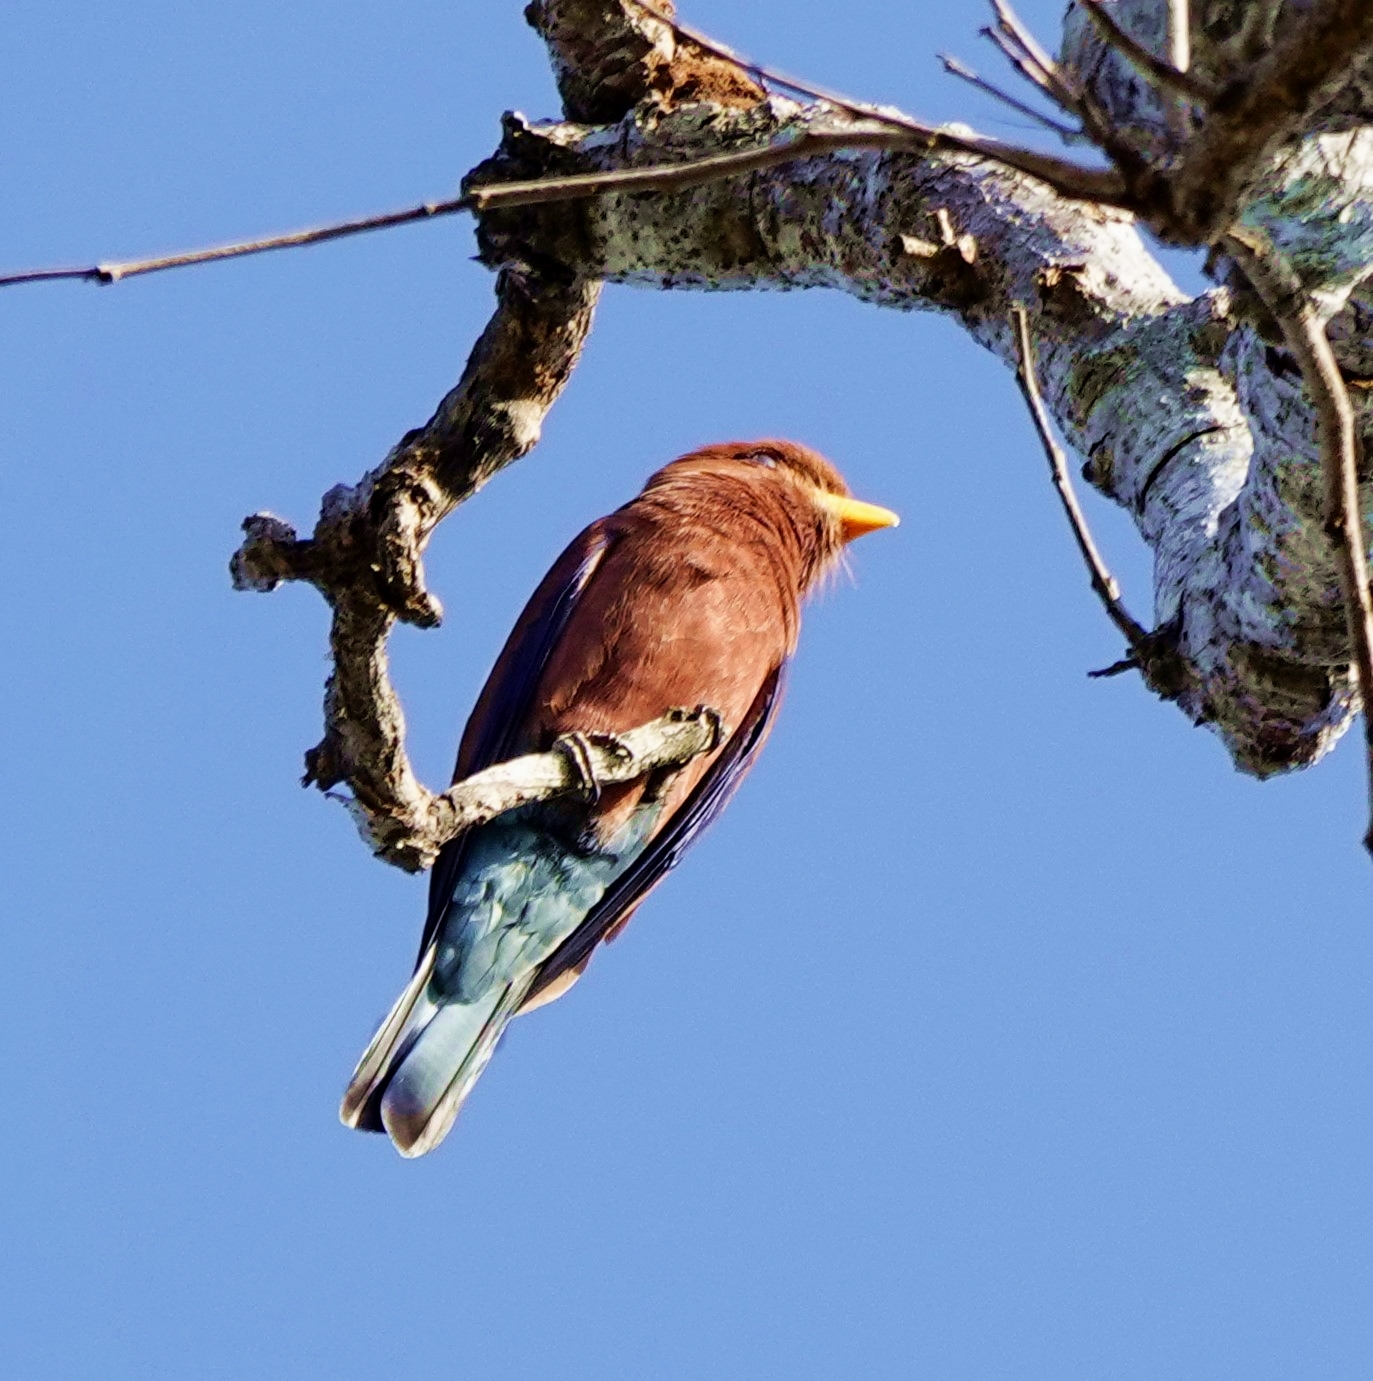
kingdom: Animalia
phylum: Chordata
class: Aves
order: Coraciiformes
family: Coraciidae
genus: Eurystomus
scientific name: Eurystomus glaucurus
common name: Broad-billed roller
